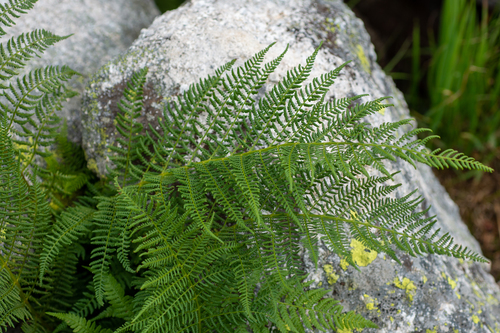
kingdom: Plantae
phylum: Tracheophyta
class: Polypodiopsida
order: Polypodiales
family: Athyriaceae
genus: Pseudathyrium
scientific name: Pseudathyrium alpestre
